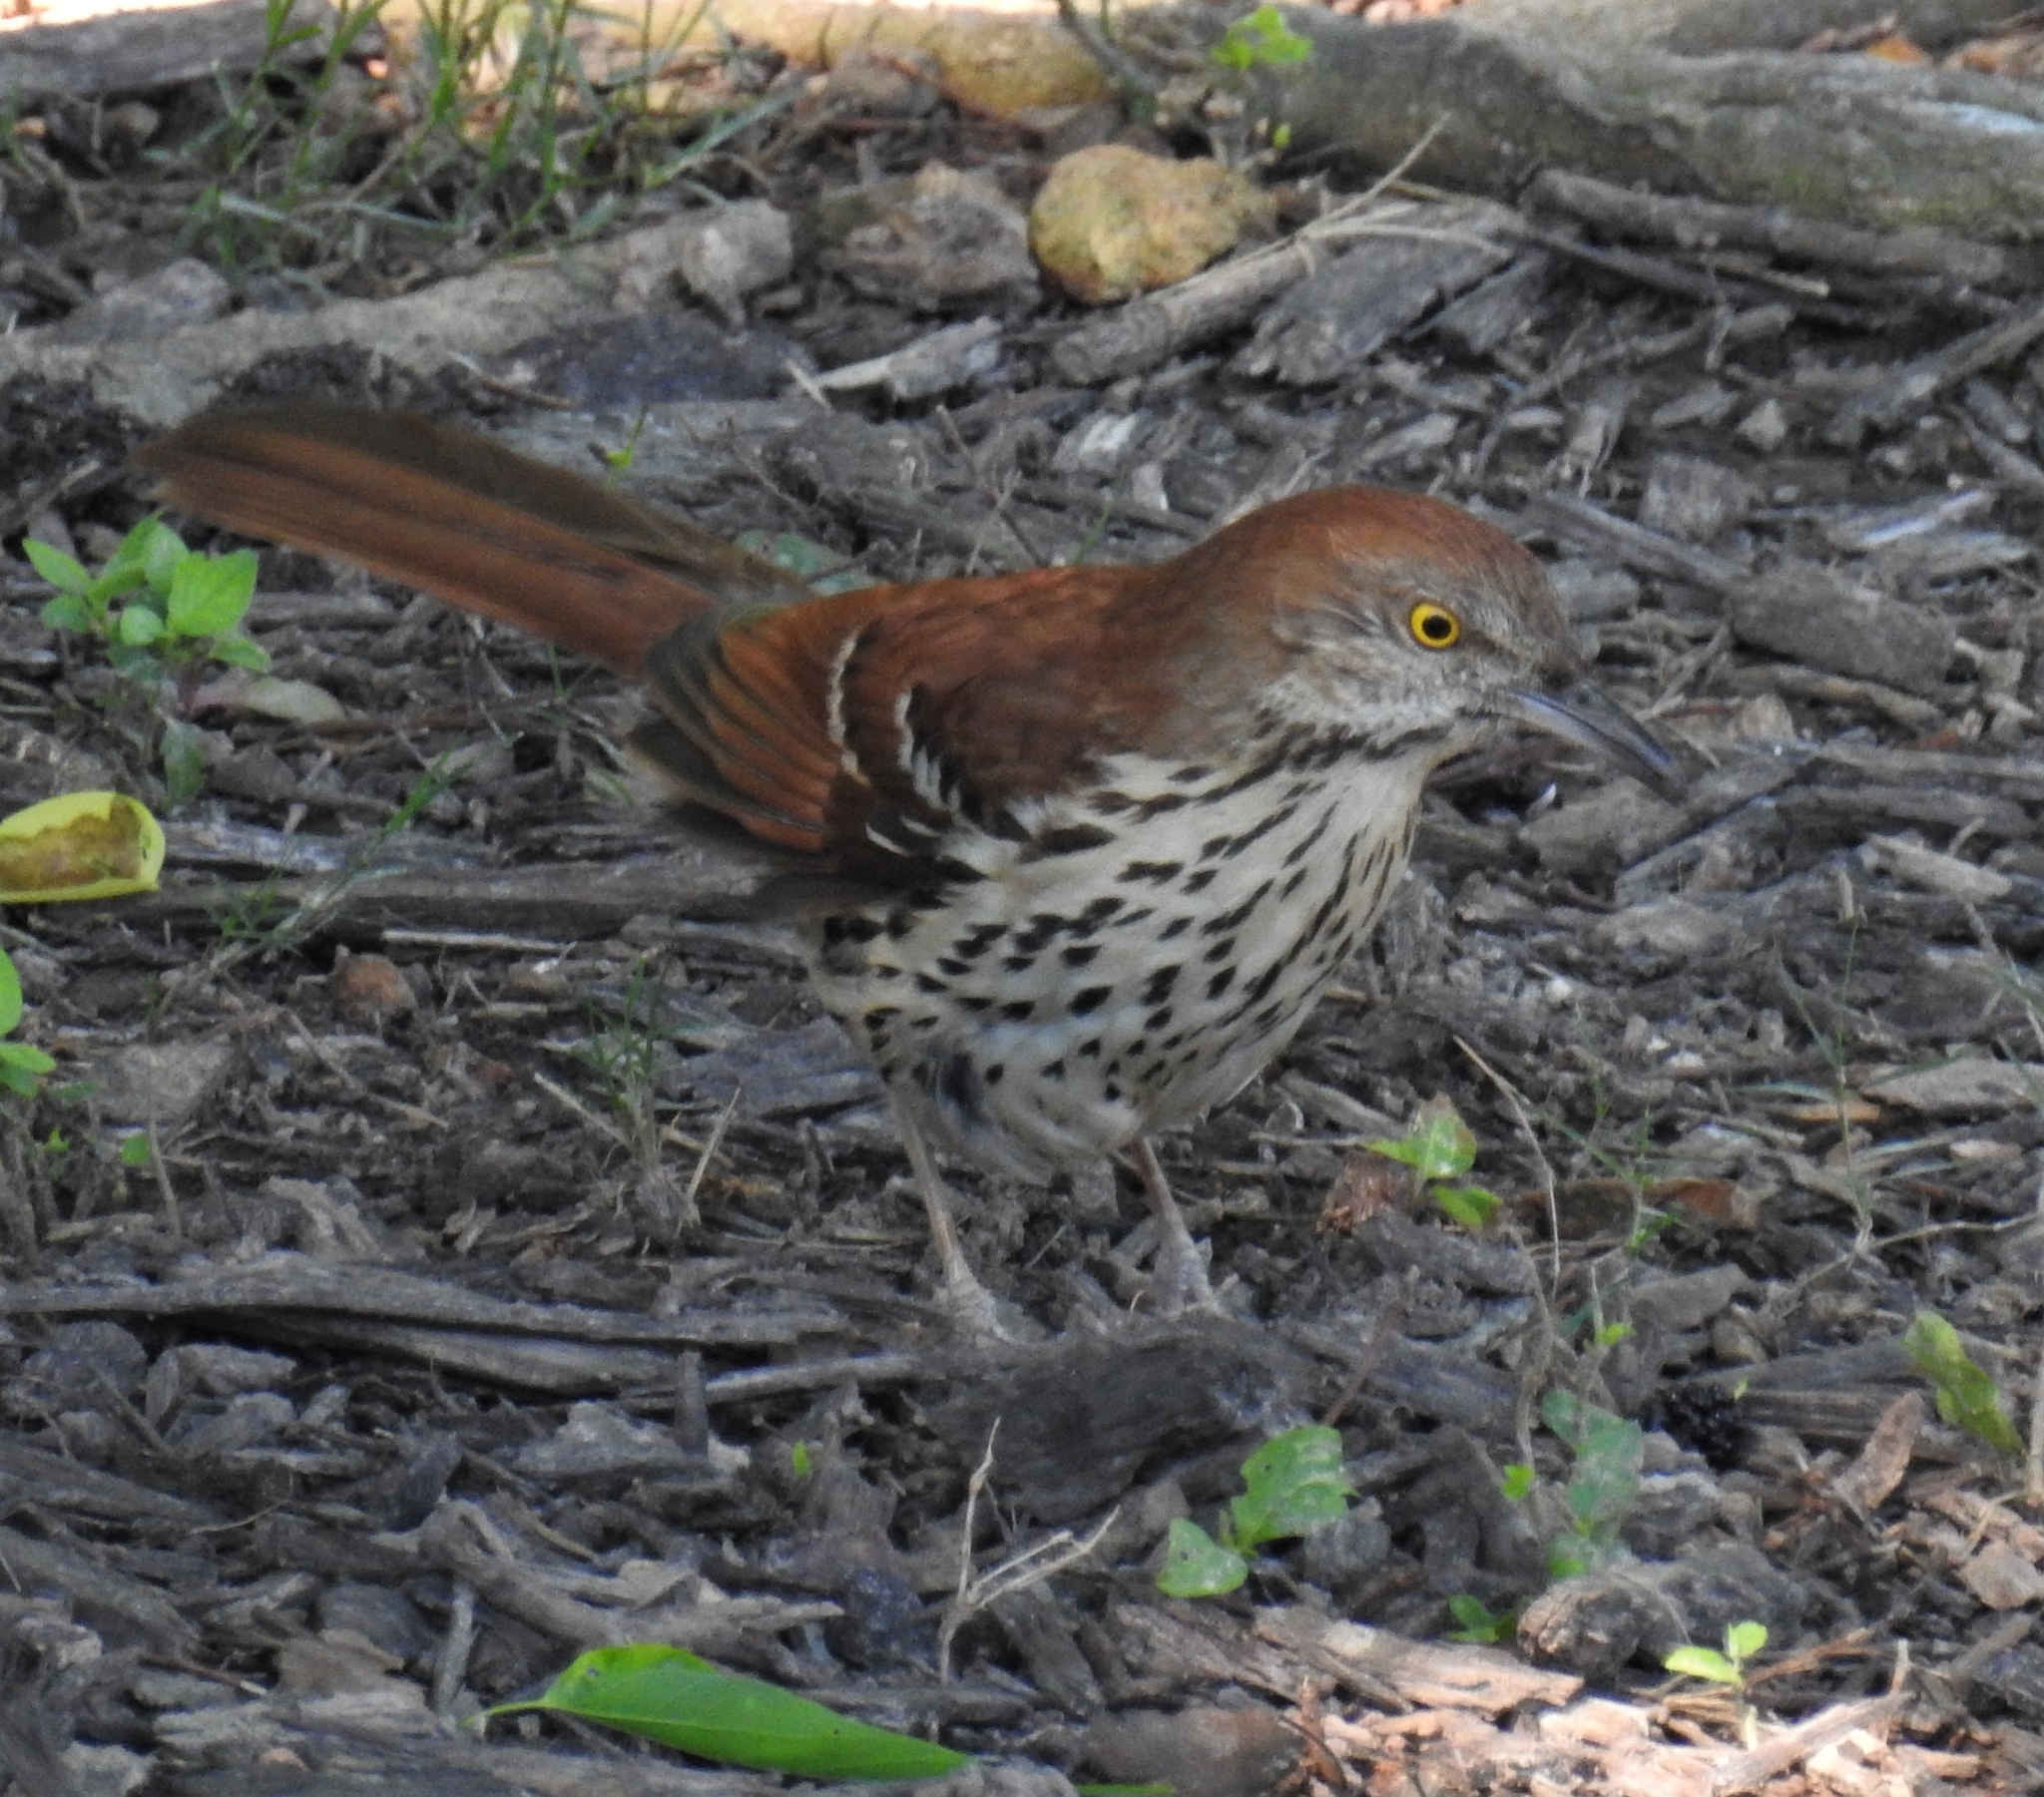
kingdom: Animalia
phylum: Chordata
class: Aves
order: Passeriformes
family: Mimidae
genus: Toxostoma
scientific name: Toxostoma rufum
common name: Brown thrasher
